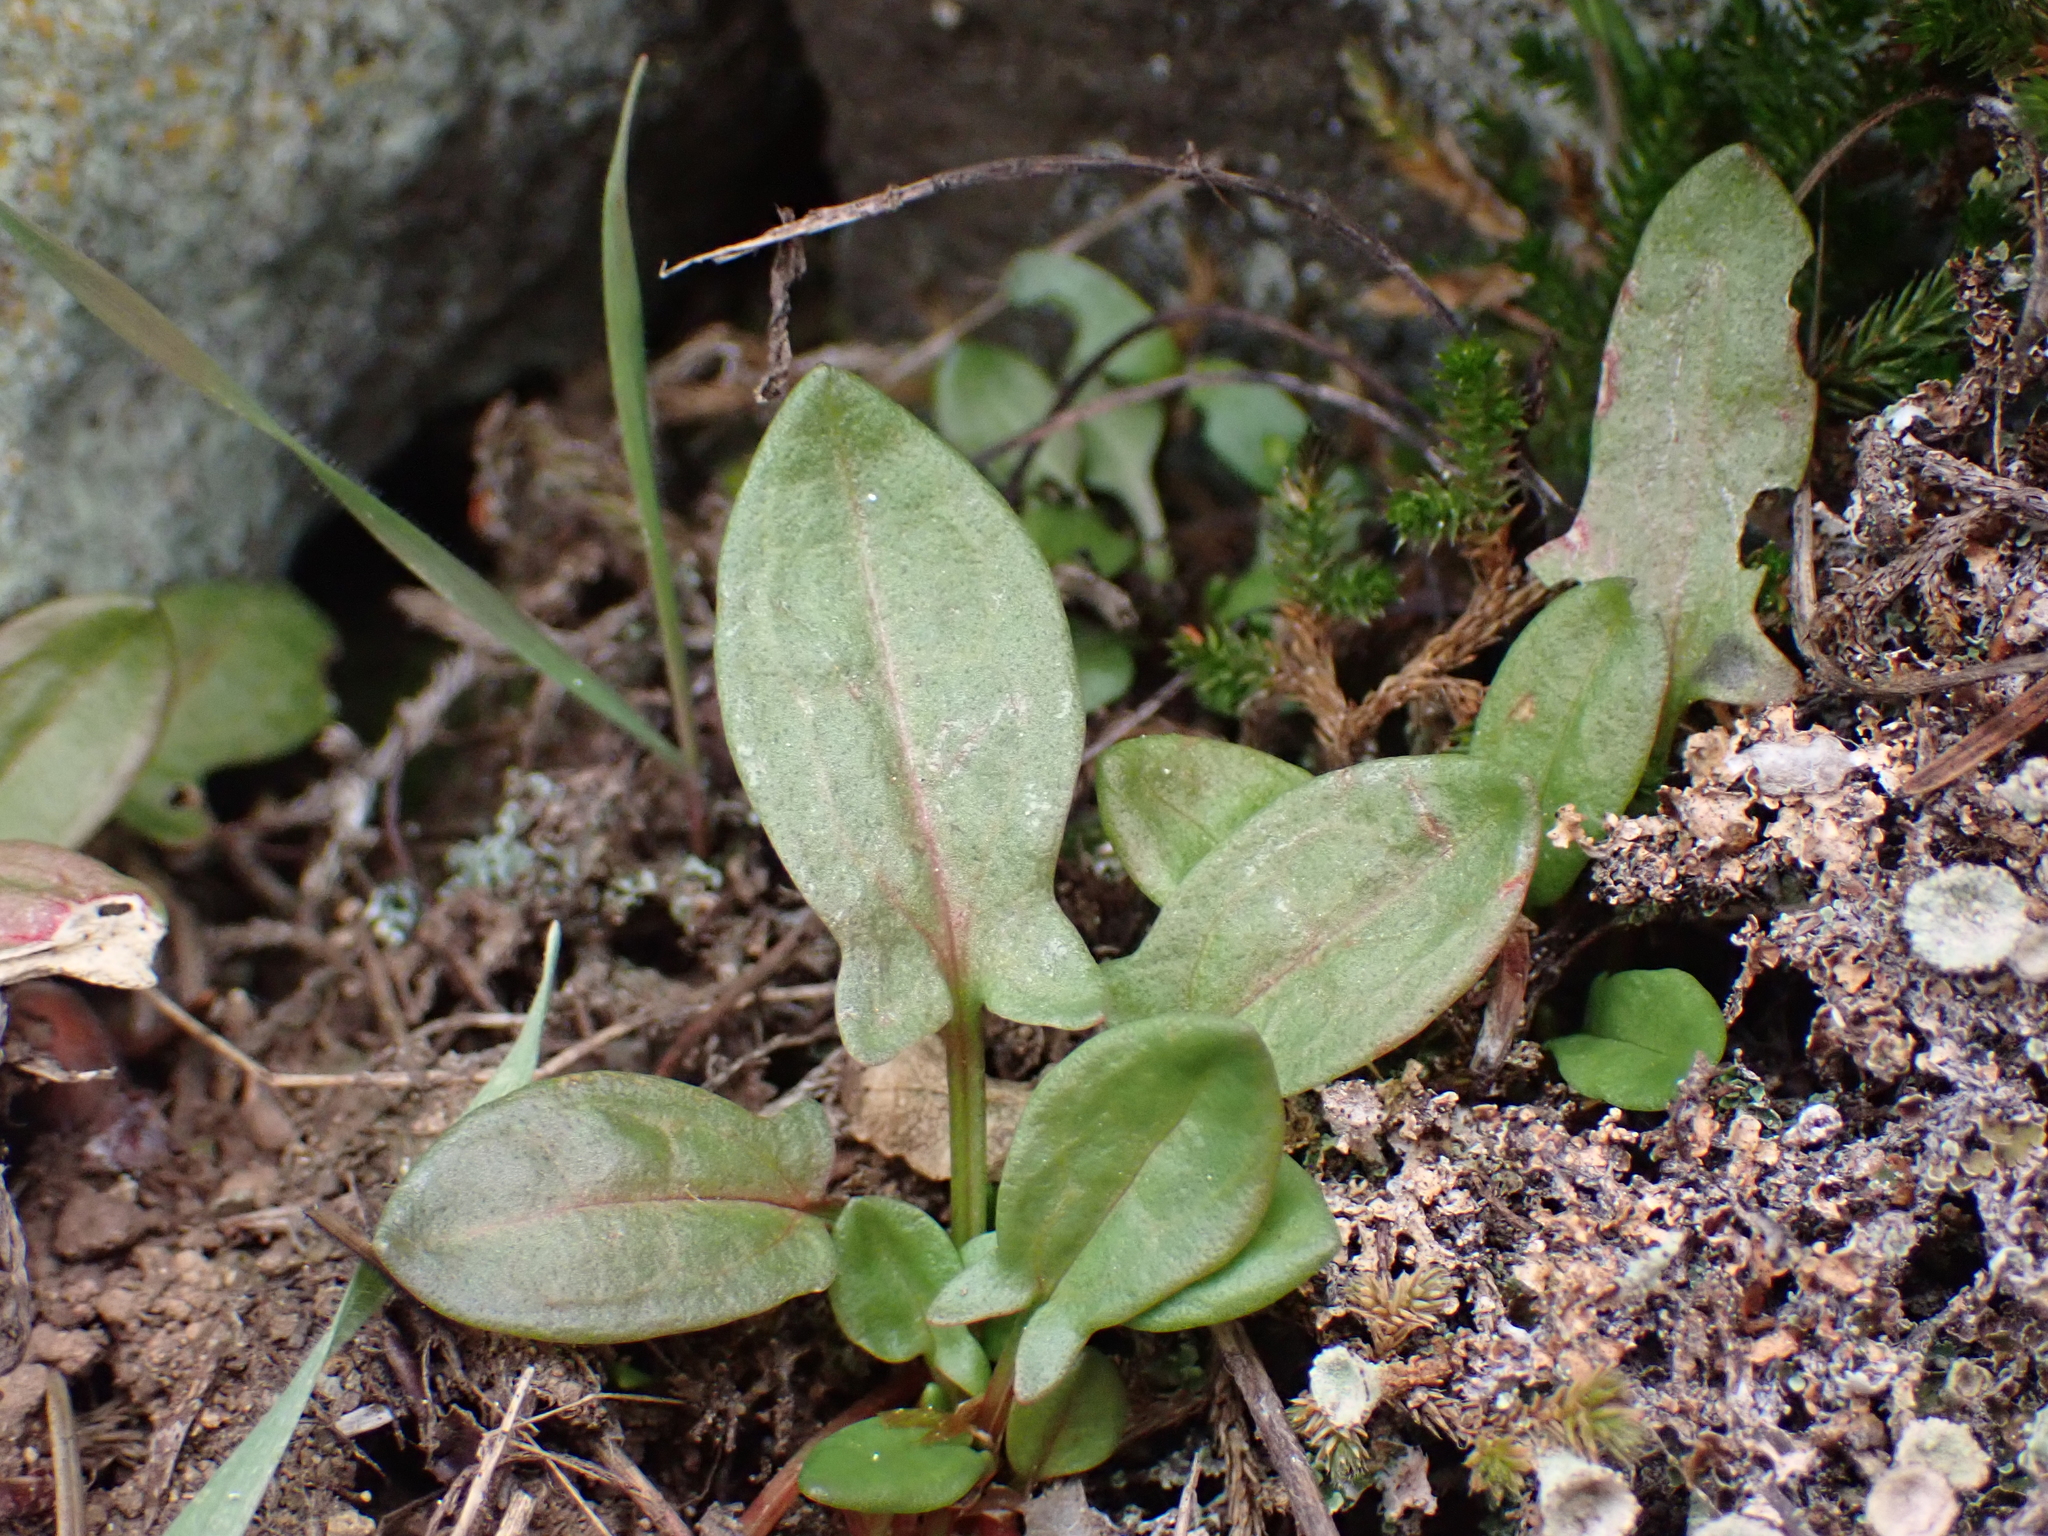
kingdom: Plantae
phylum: Tracheophyta
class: Magnoliopsida
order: Caryophyllales
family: Polygonaceae
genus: Rumex
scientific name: Rumex acetosella
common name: Common sheep sorrel
